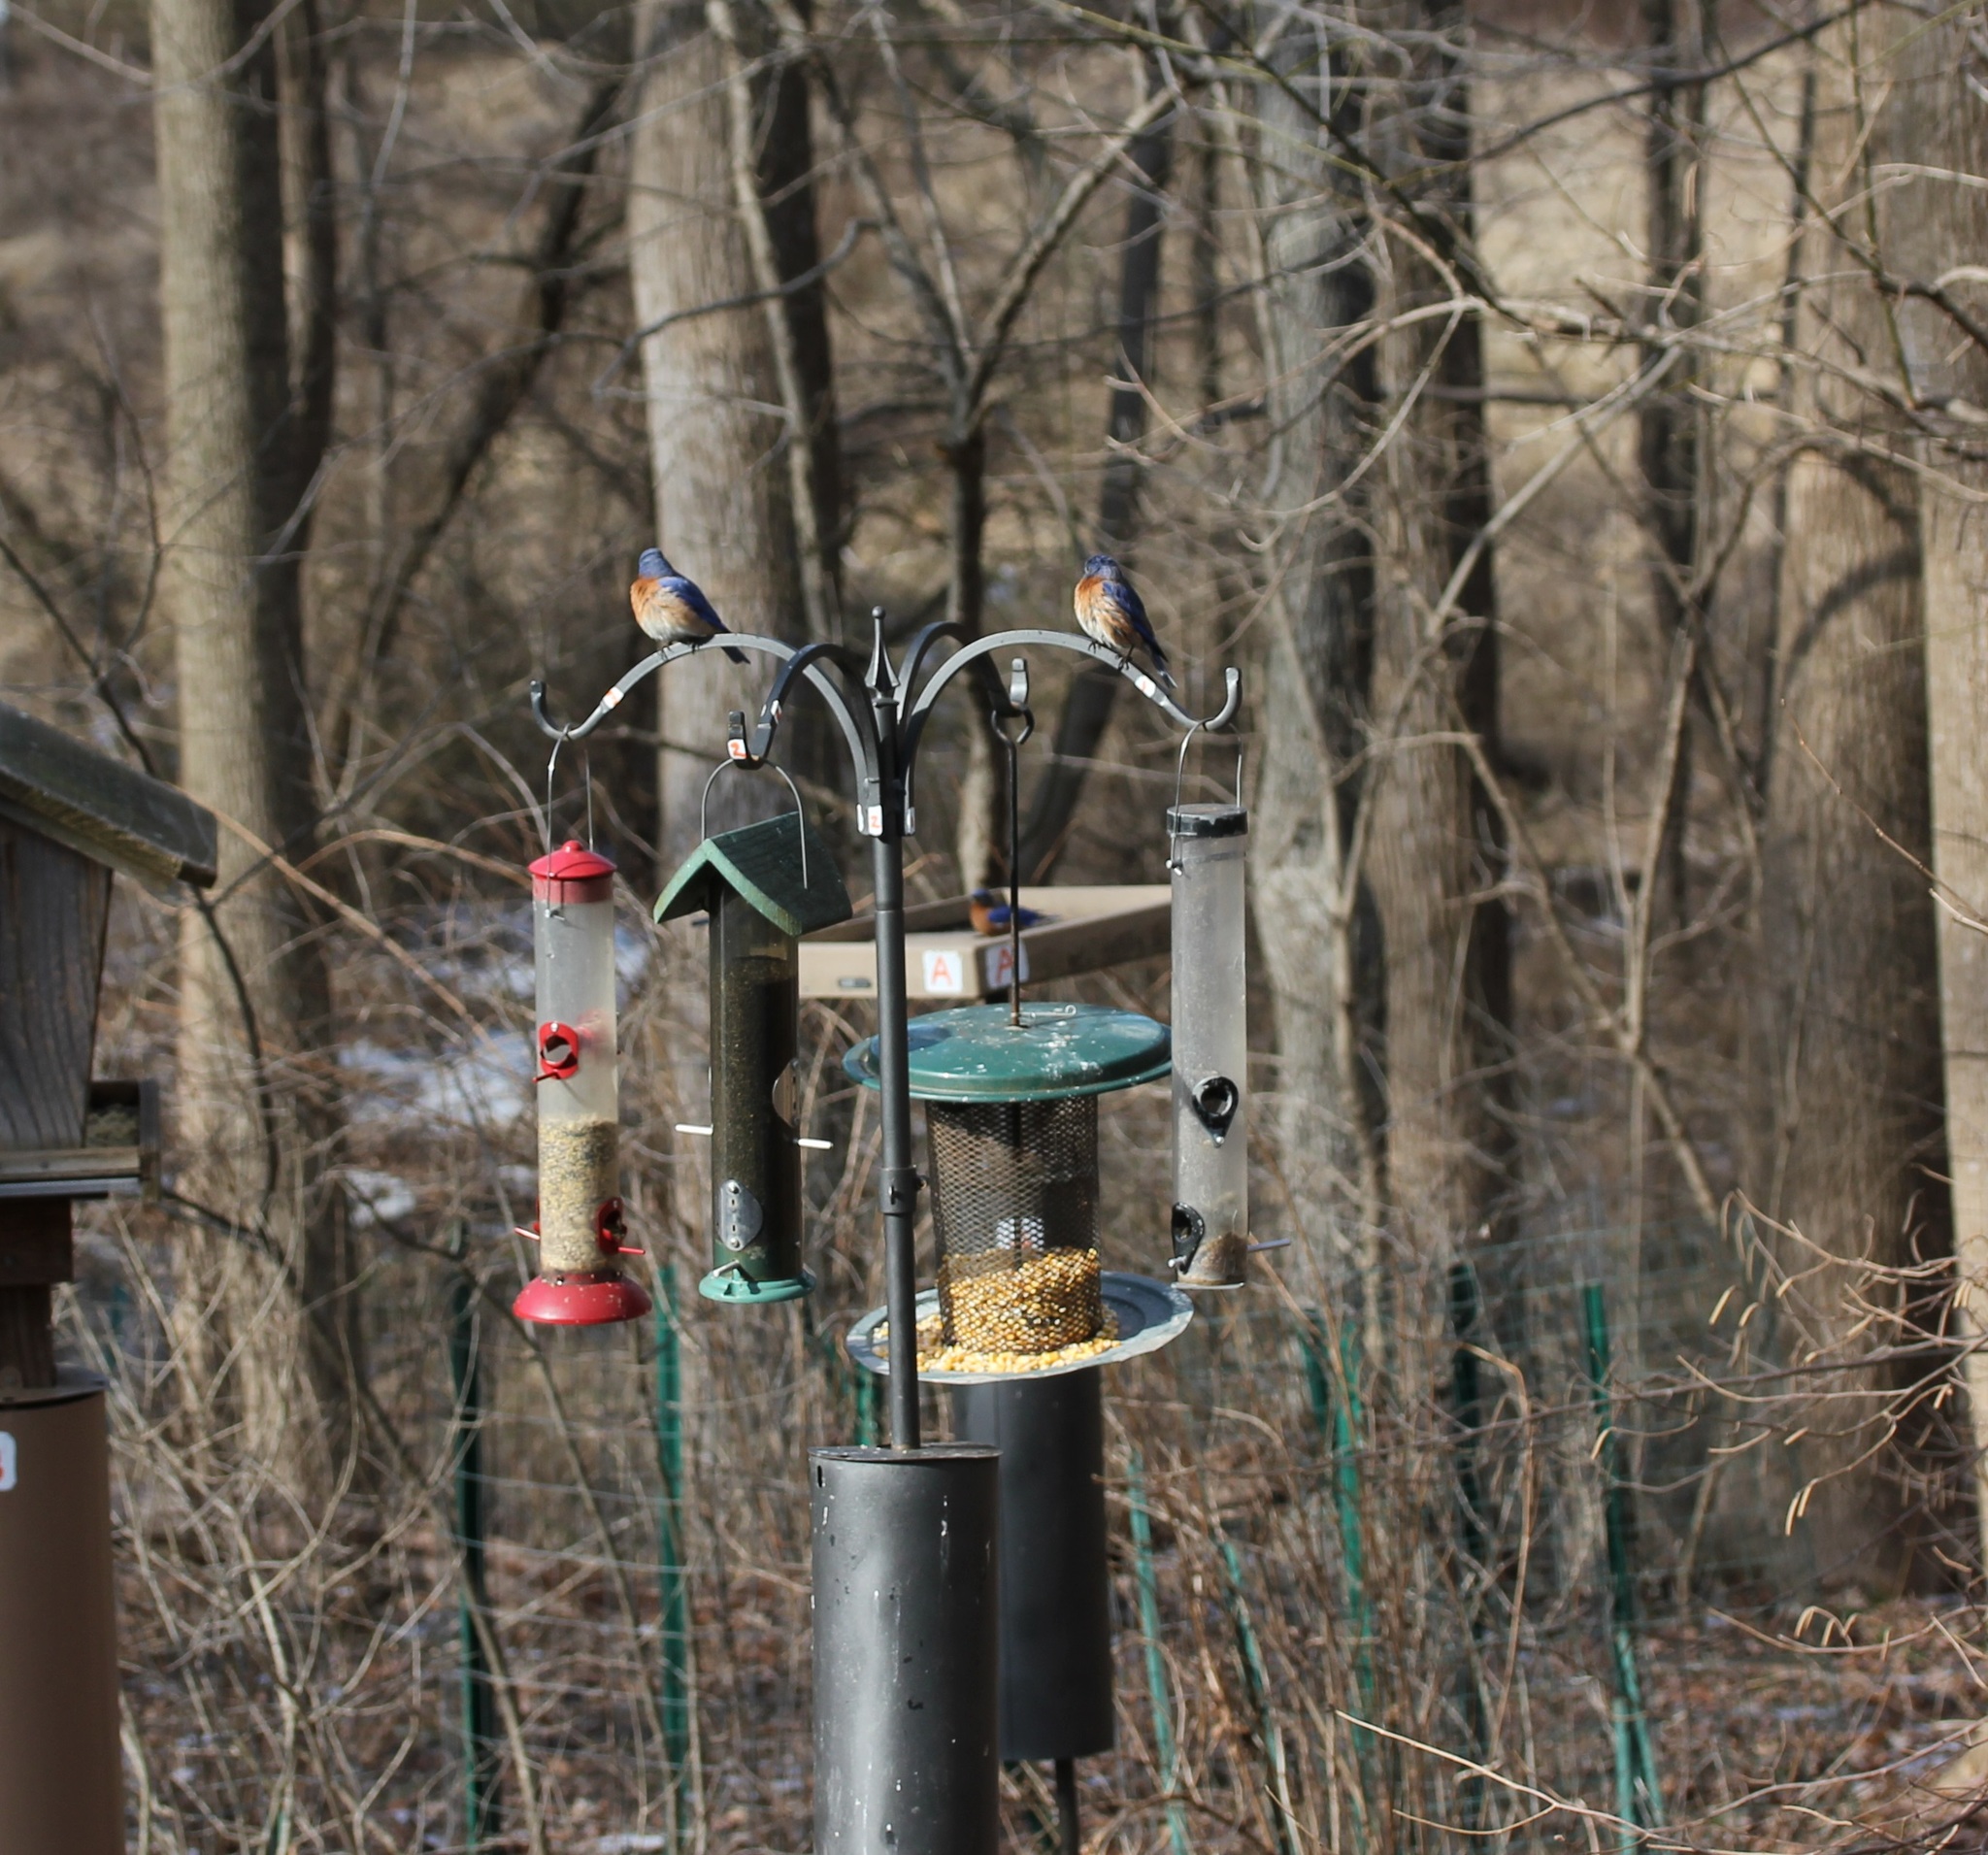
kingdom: Animalia
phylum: Chordata
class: Aves
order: Passeriformes
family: Turdidae
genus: Sialia
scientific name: Sialia sialis
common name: Eastern bluebird
